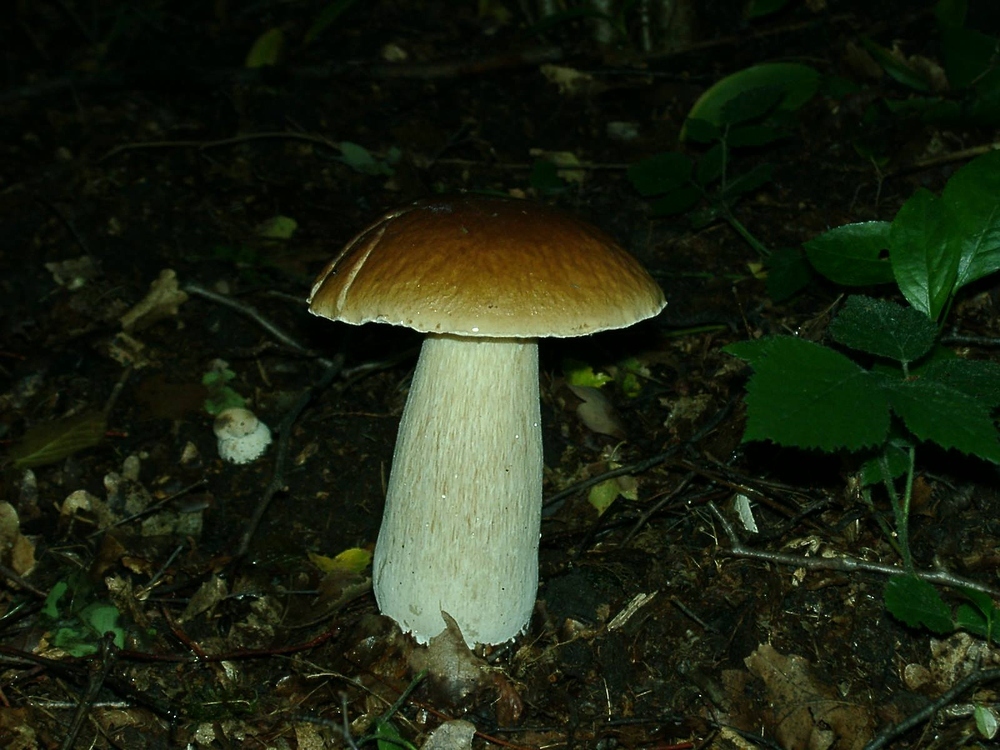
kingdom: Fungi
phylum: Basidiomycota
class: Agaricomycetes
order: Boletales
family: Boletaceae
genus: Boletus
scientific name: Boletus edulis
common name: Cep
